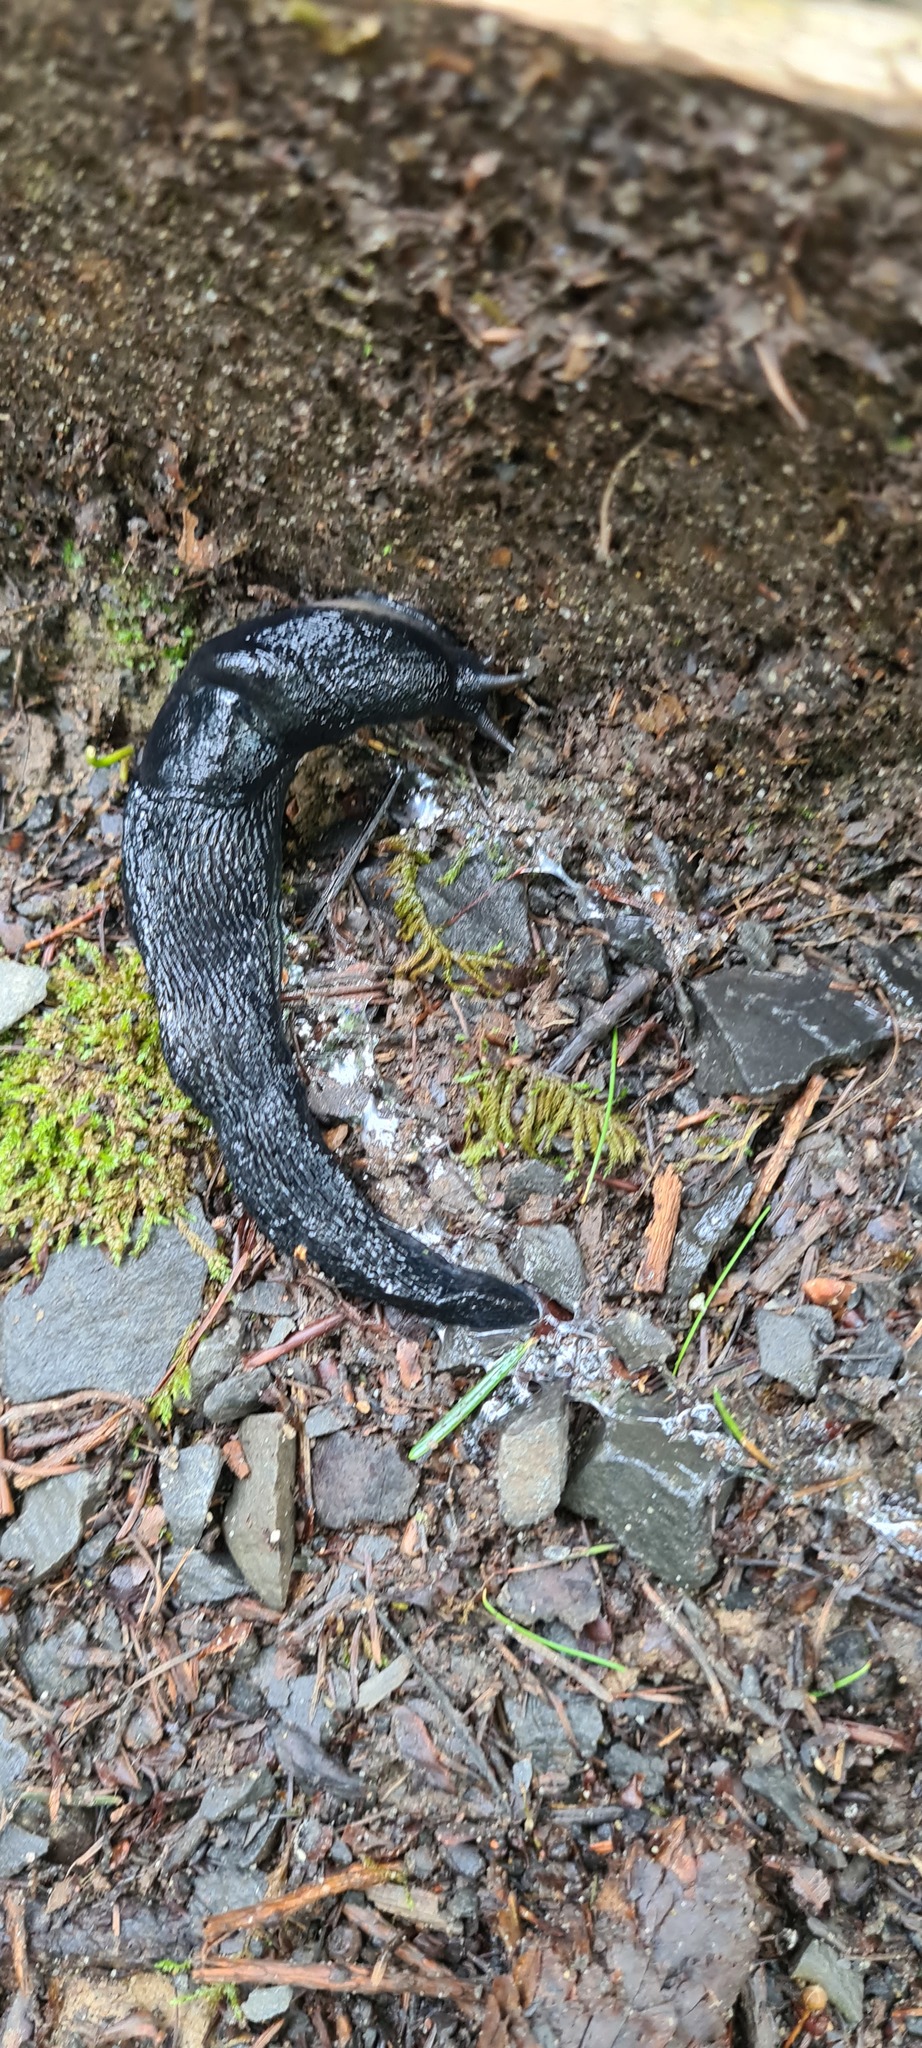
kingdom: Animalia
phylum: Mollusca
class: Gastropoda
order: Stylommatophora
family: Limacidae
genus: Limax
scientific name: Limax cinereoniger
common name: Ash-black slug
